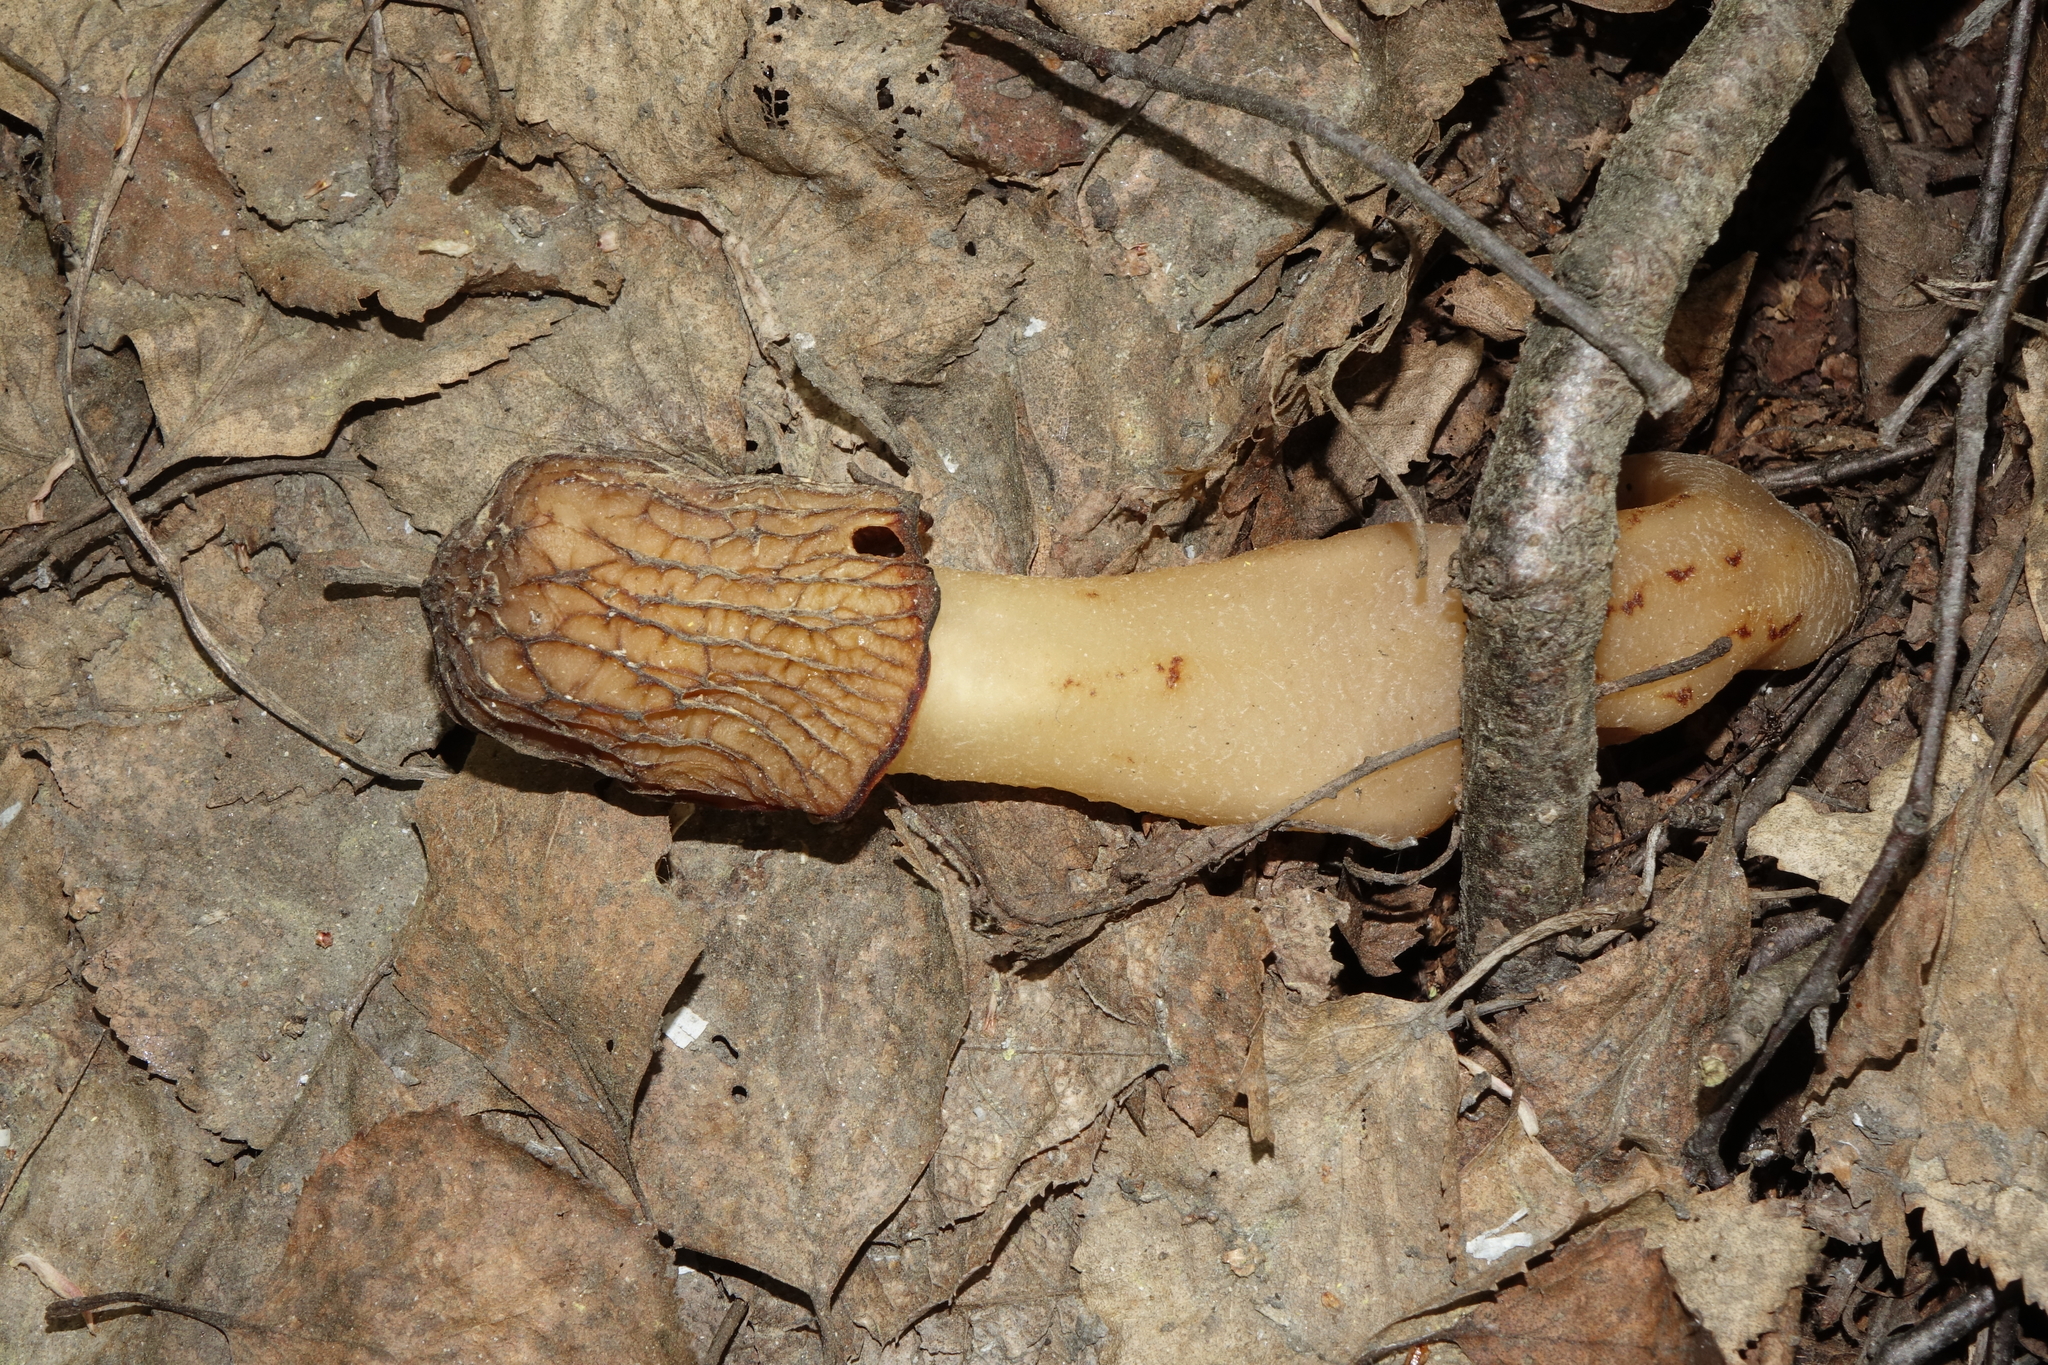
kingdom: Fungi
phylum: Ascomycota
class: Pezizomycetes
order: Pezizales
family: Morchellaceae
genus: Verpa
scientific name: Verpa bohemica
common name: Wrinkled thimble morel
